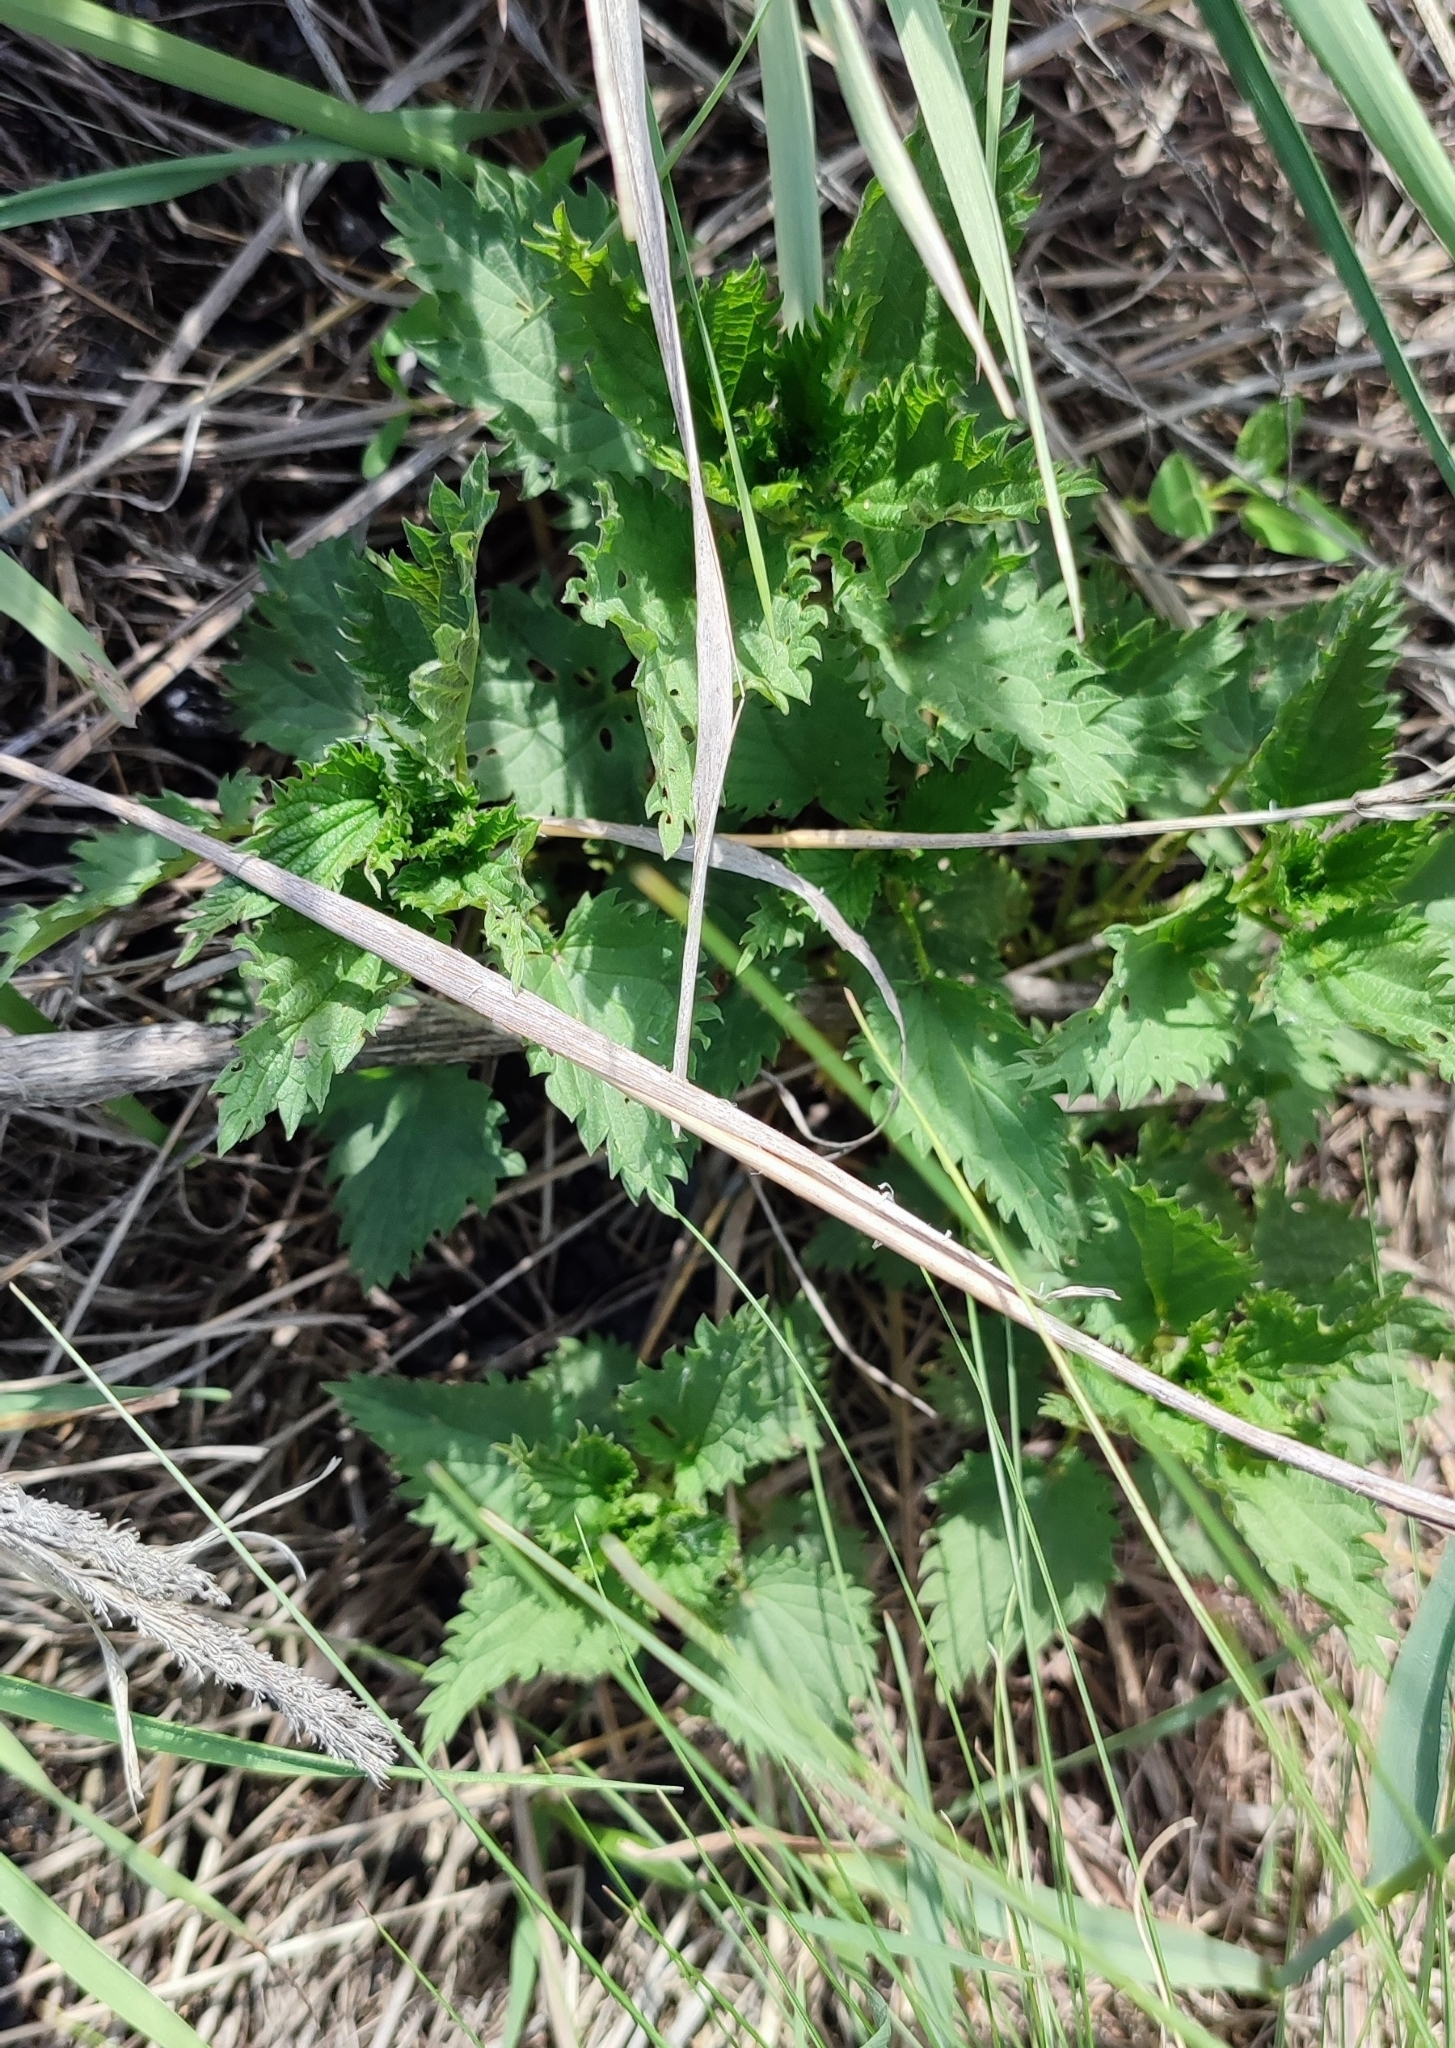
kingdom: Plantae
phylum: Tracheophyta
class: Magnoliopsida
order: Rosales
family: Urticaceae
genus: Urtica
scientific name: Urtica dioica
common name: Common nettle
